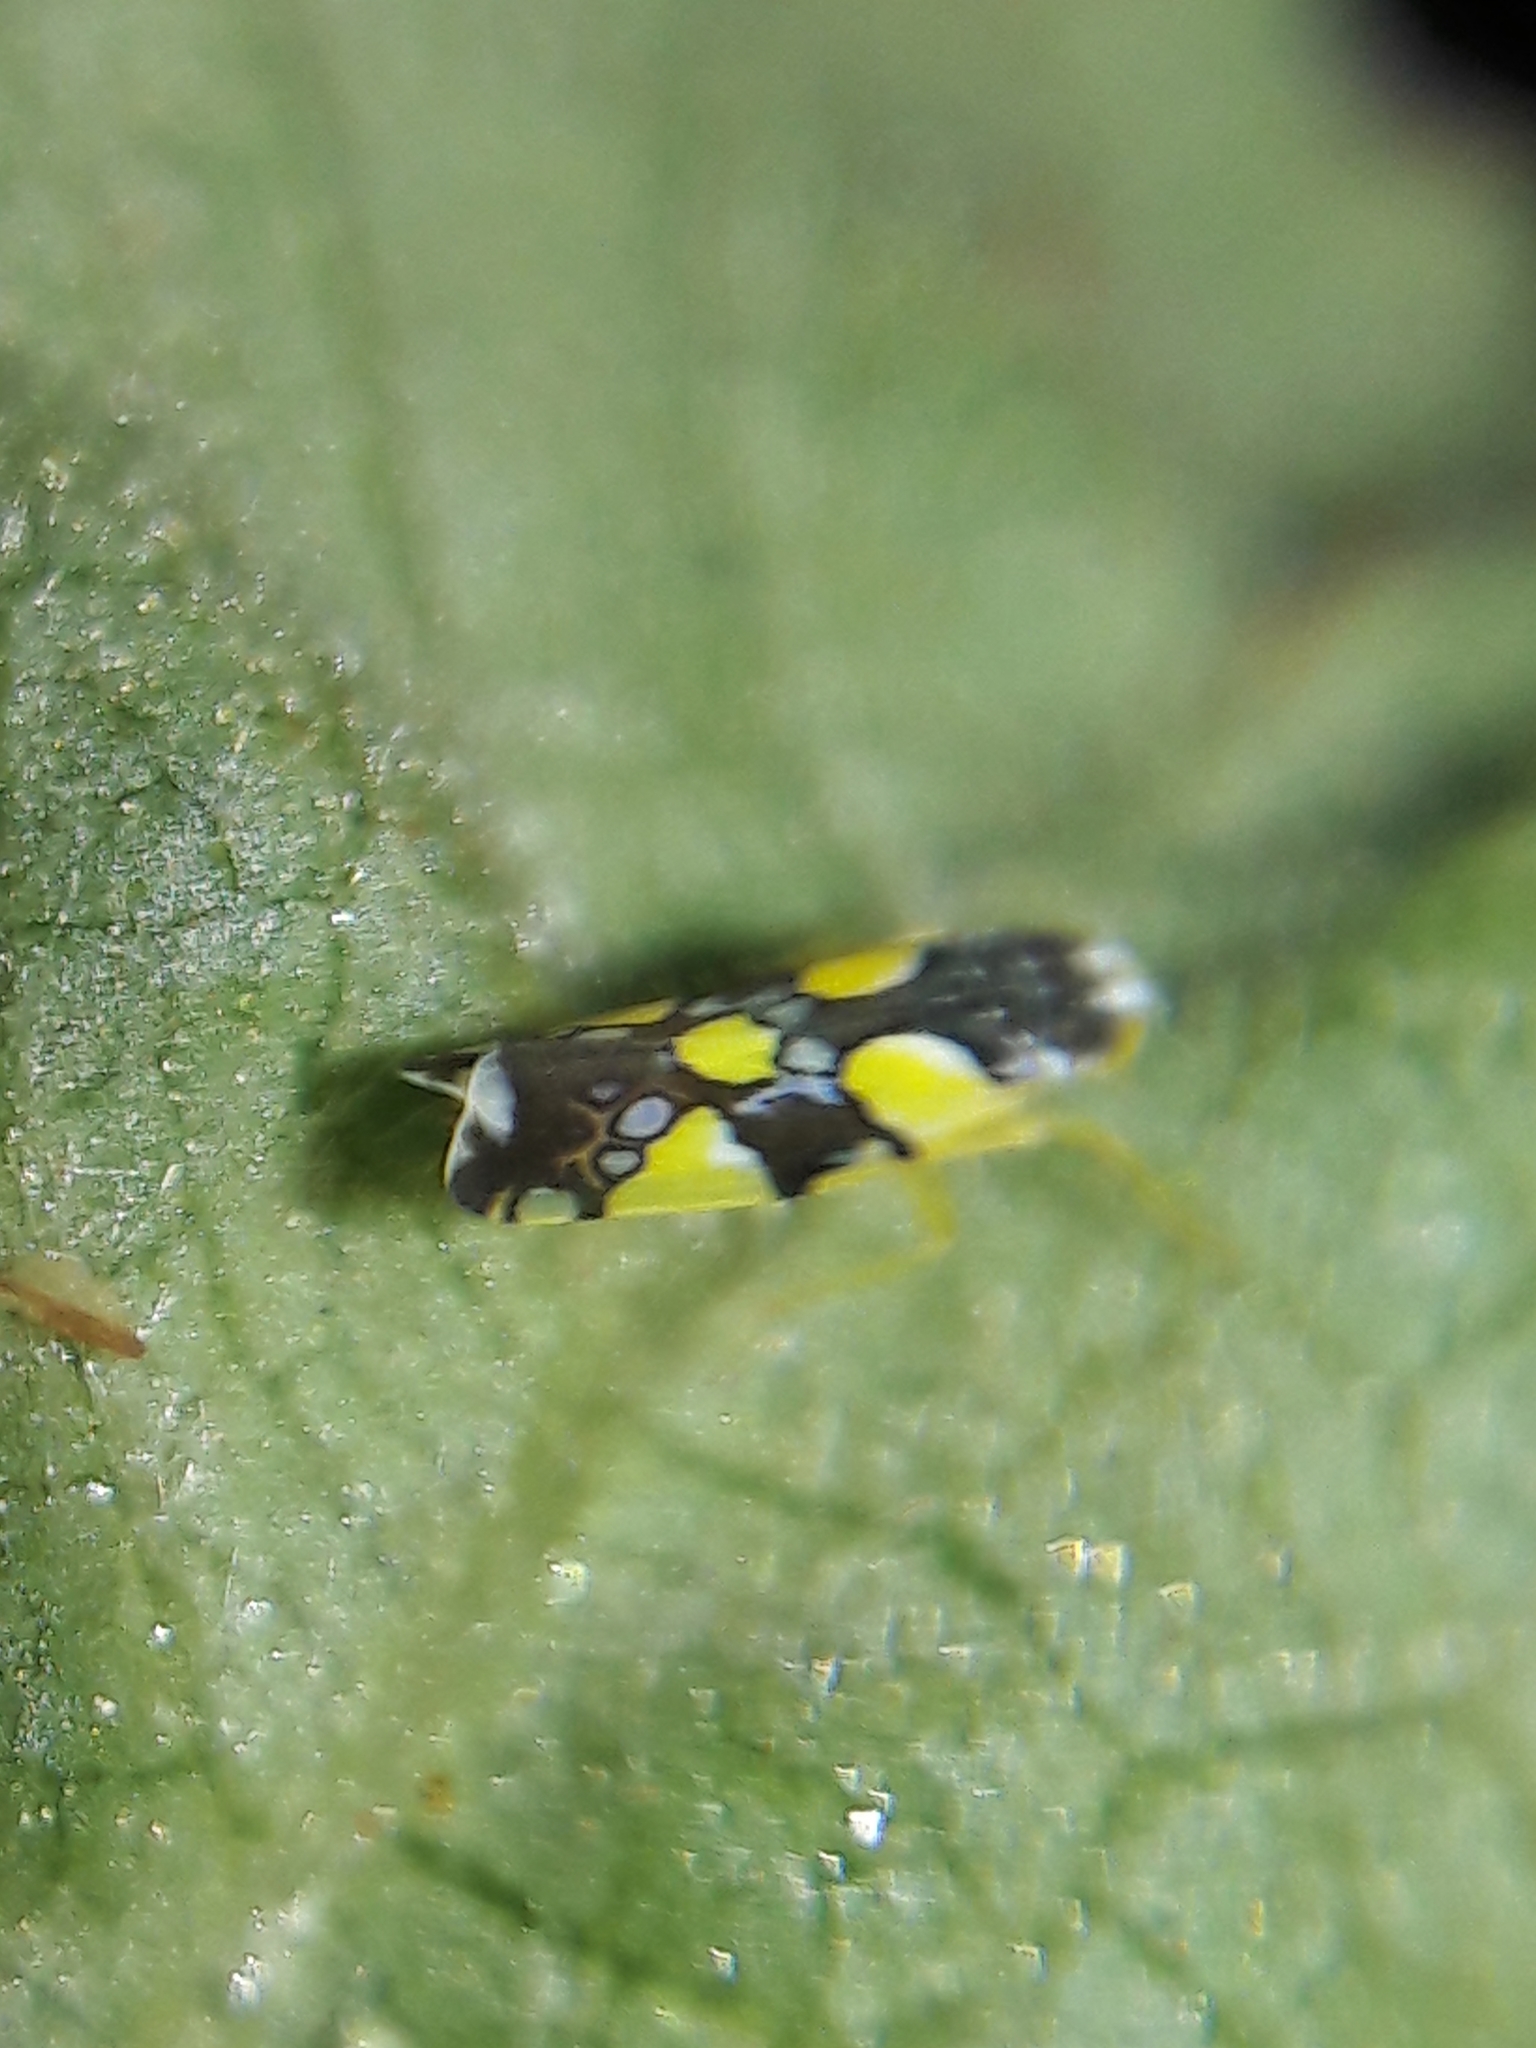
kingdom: Animalia
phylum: Arthropoda
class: Insecta
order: Hemiptera
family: Cicadellidae
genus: Protalebrella
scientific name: Protalebrella brasiliensis
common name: Brasilian leafhopper
